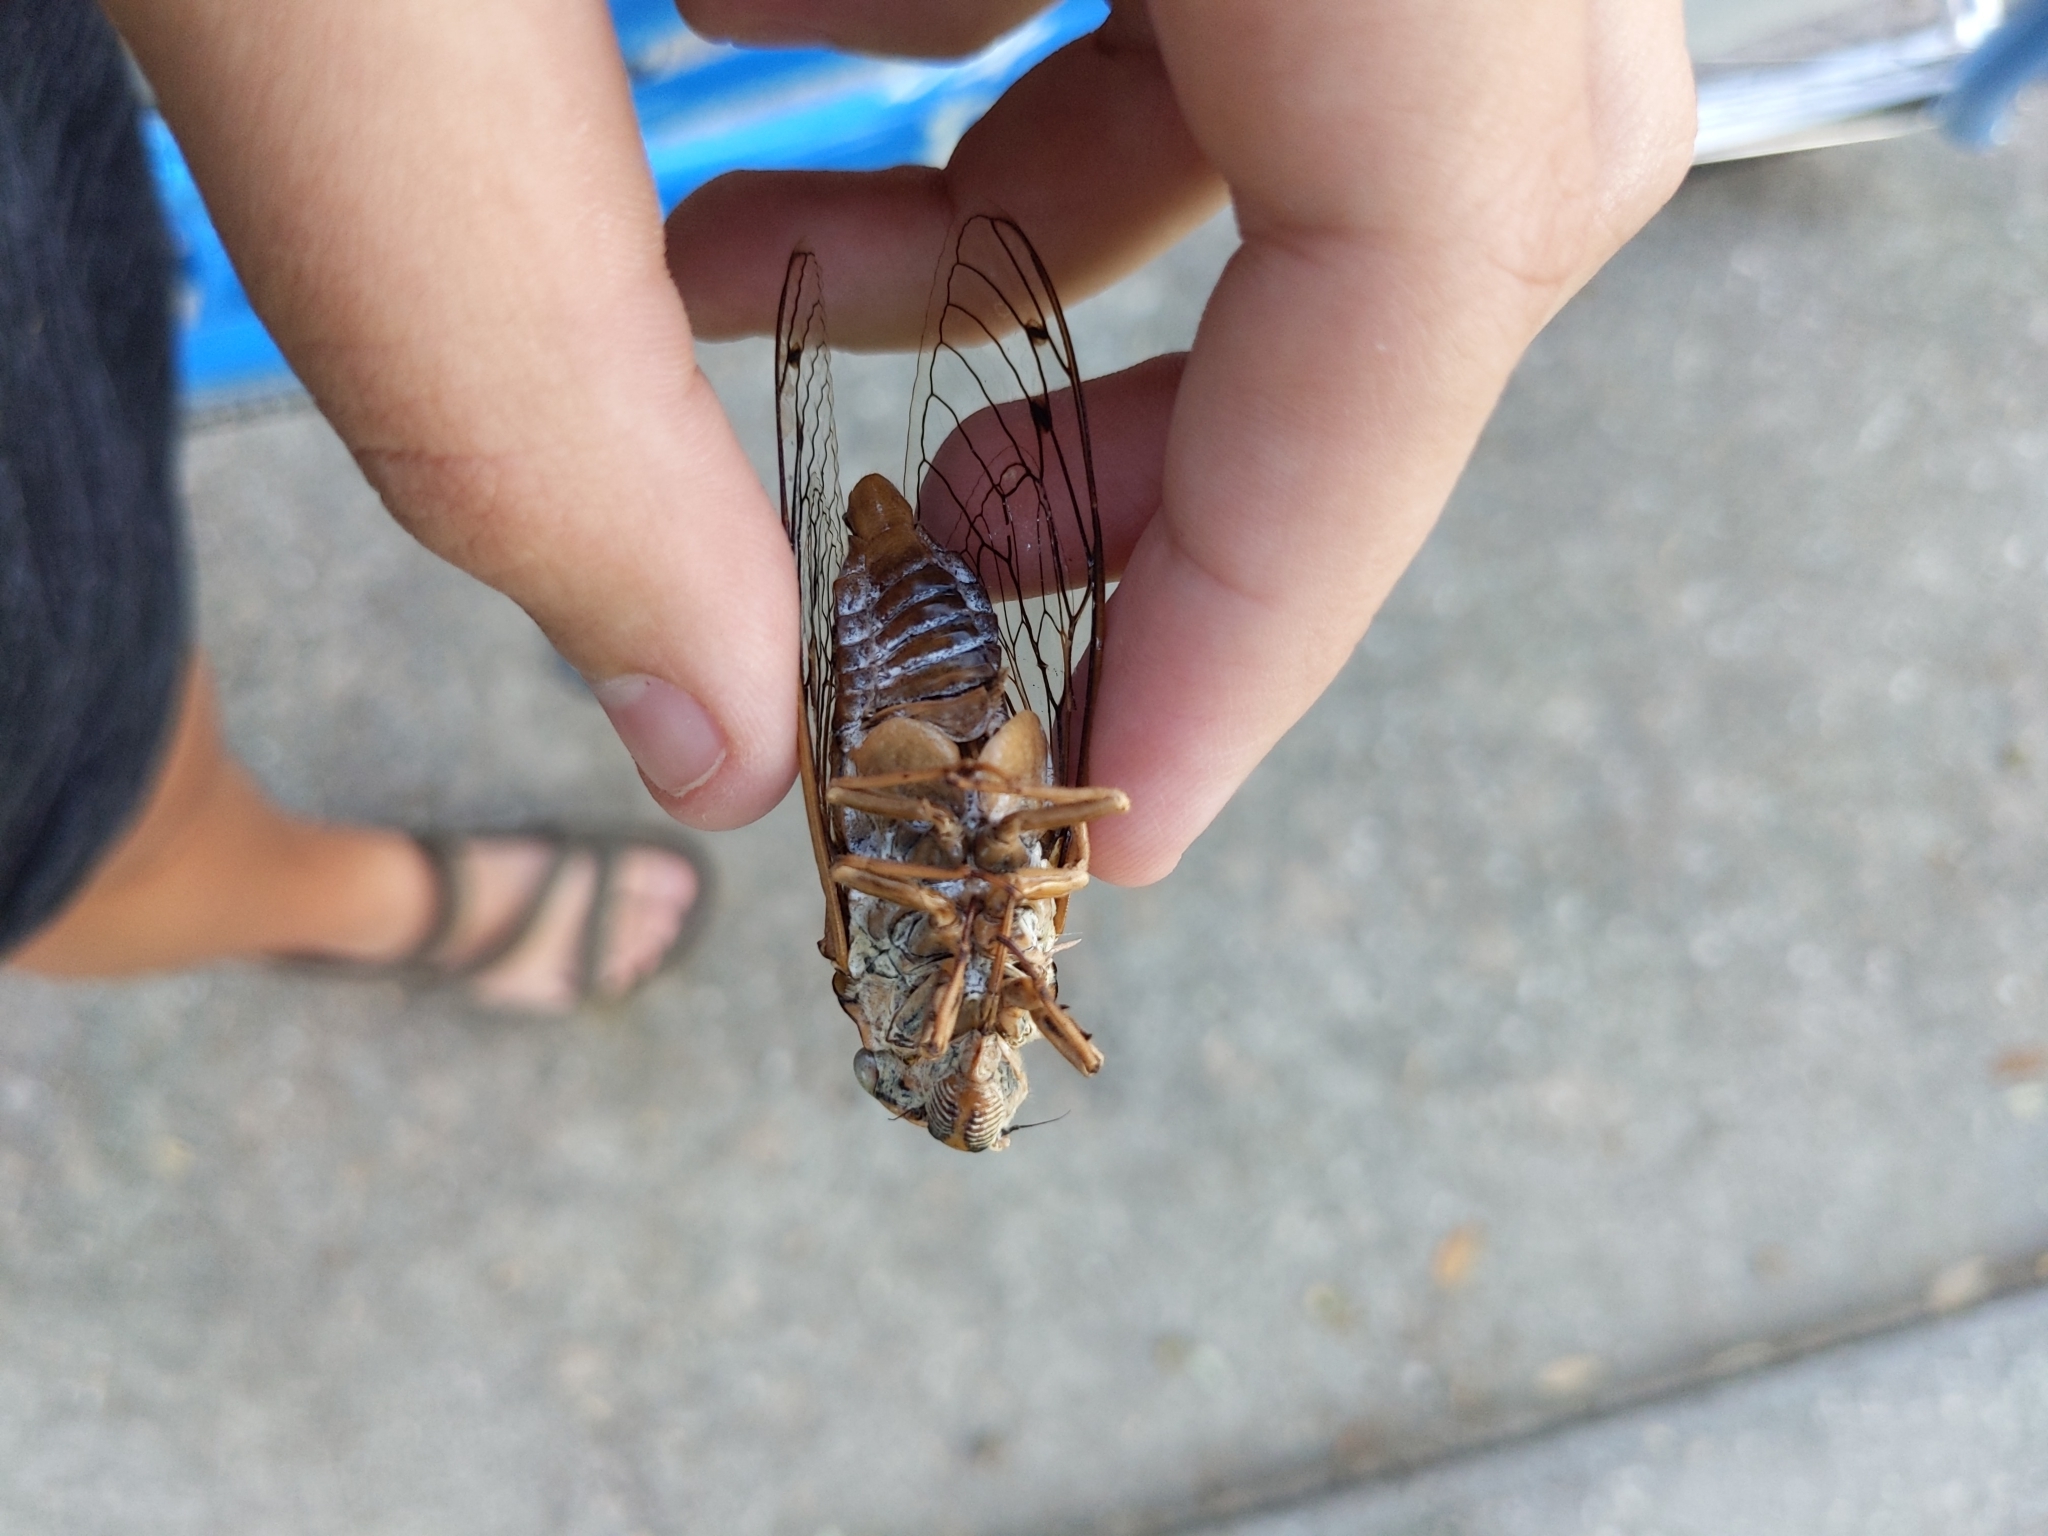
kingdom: Animalia
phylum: Arthropoda
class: Insecta
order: Hemiptera
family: Cicadidae
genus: Megatibicen
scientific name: Megatibicen resh
